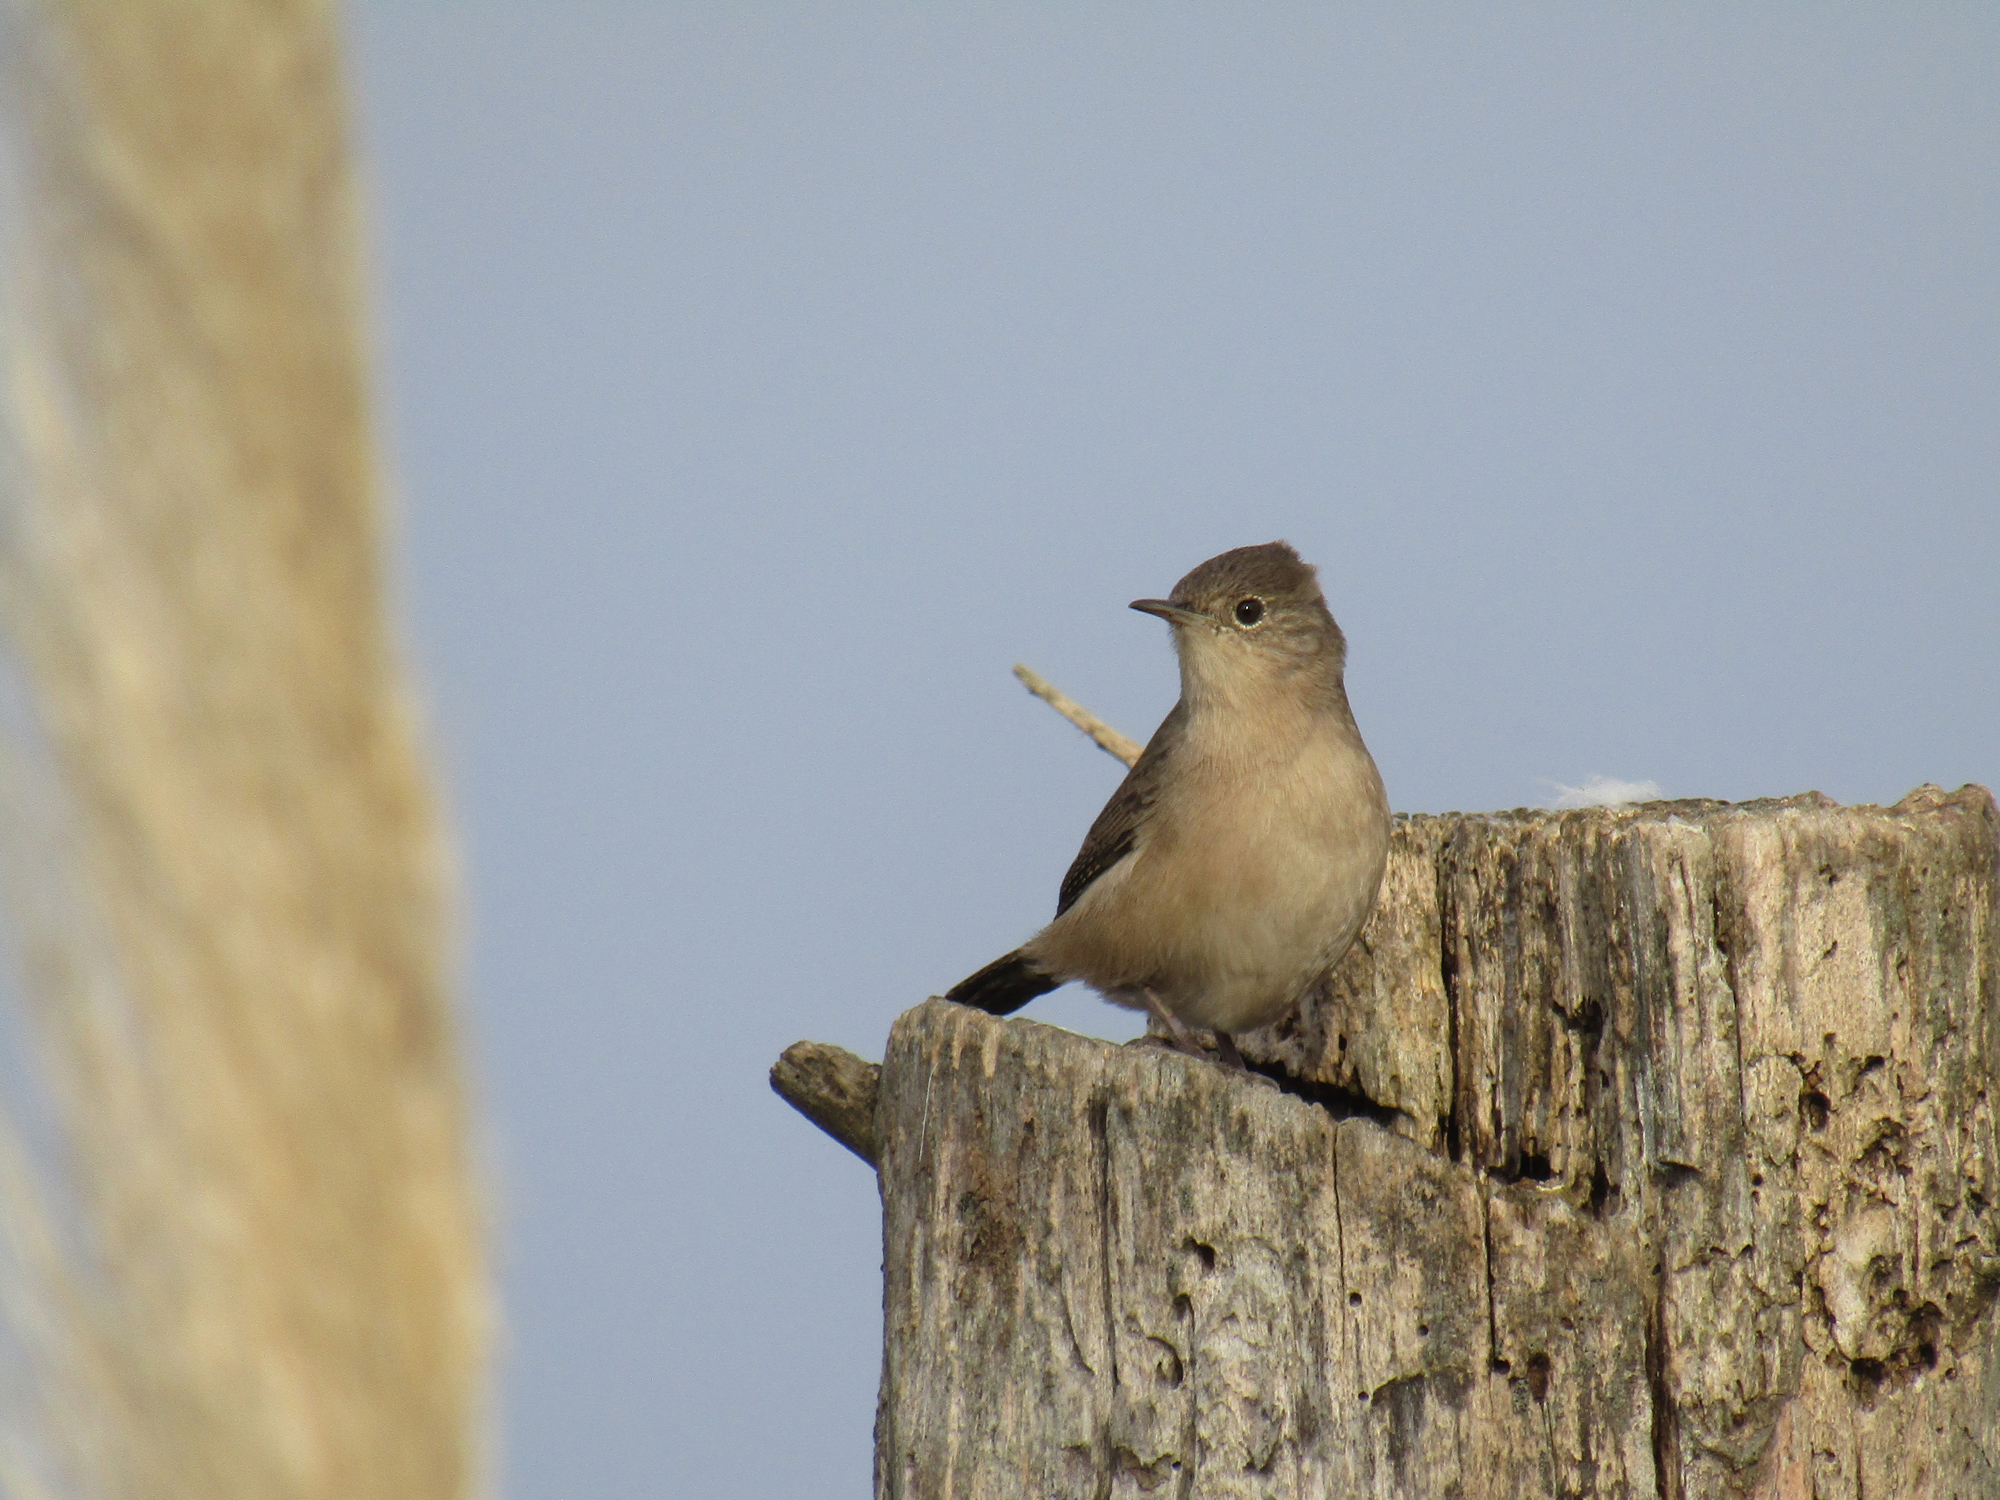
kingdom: Animalia
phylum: Chordata
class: Aves
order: Passeriformes
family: Troglodytidae
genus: Troglodytes
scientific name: Troglodytes aedon
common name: House wren
